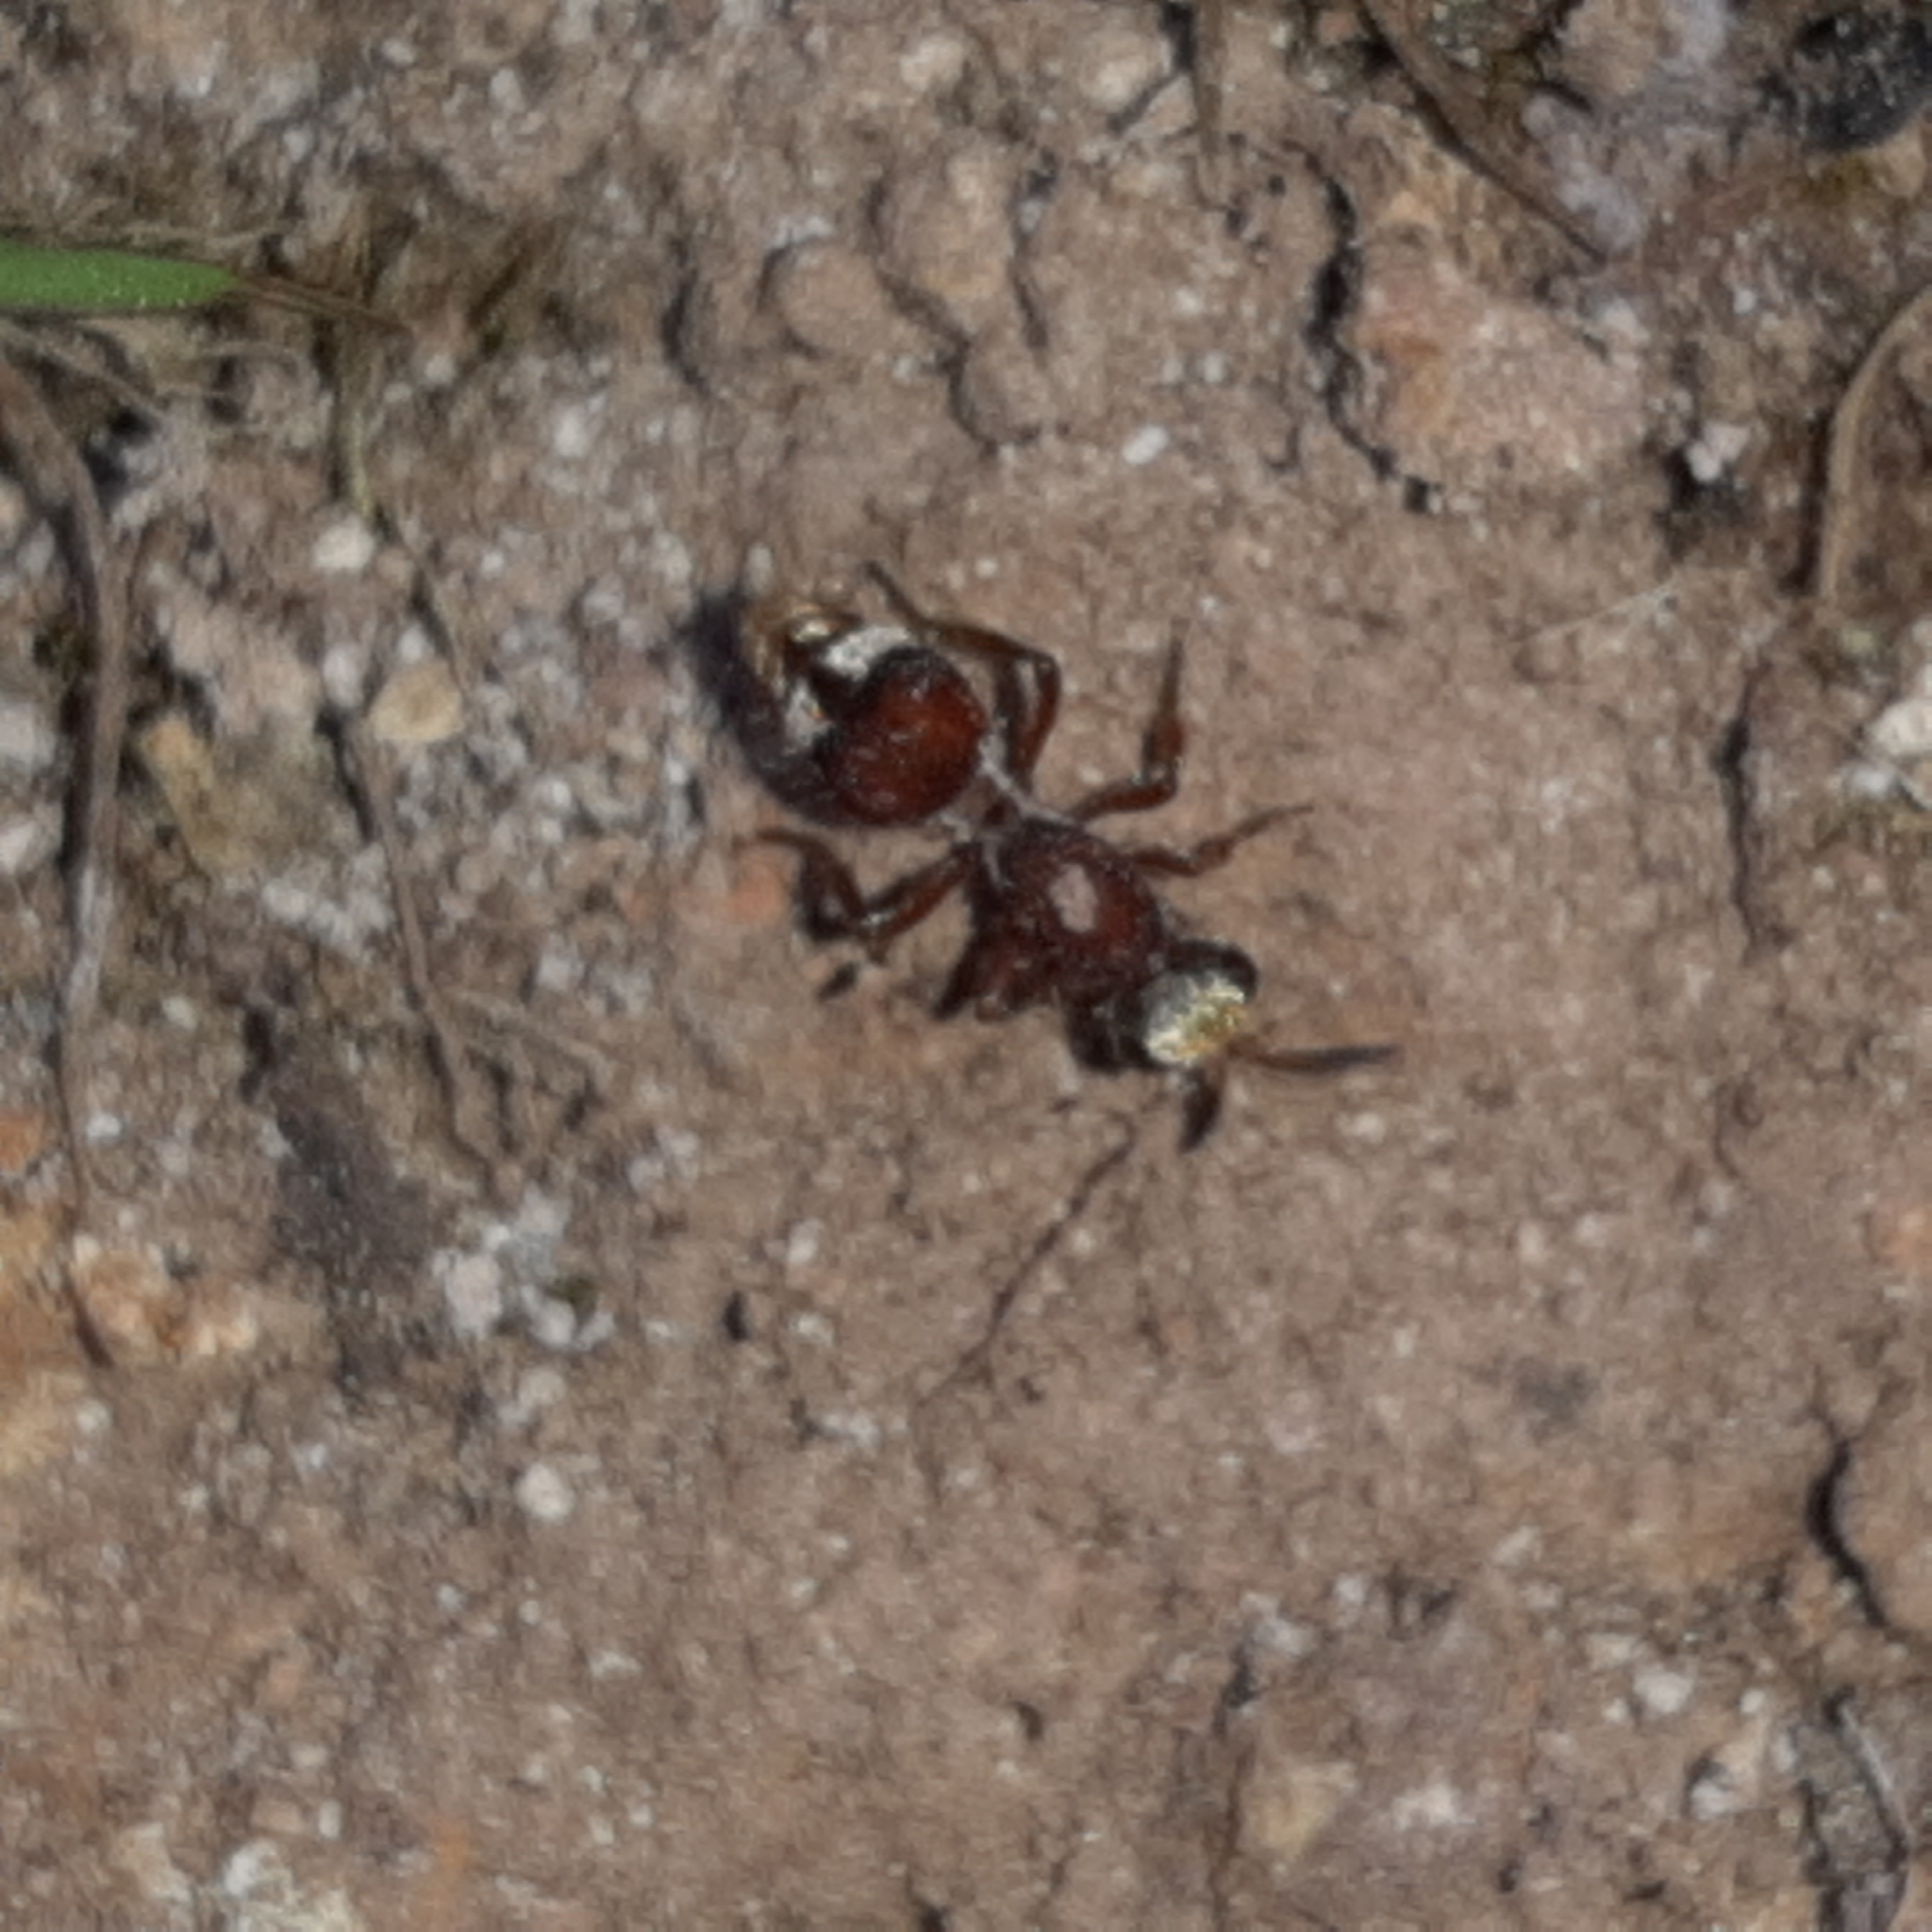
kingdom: Animalia
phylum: Arthropoda
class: Insecta
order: Hymenoptera
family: Mutillidae
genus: Ephuta
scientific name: Ephuta
